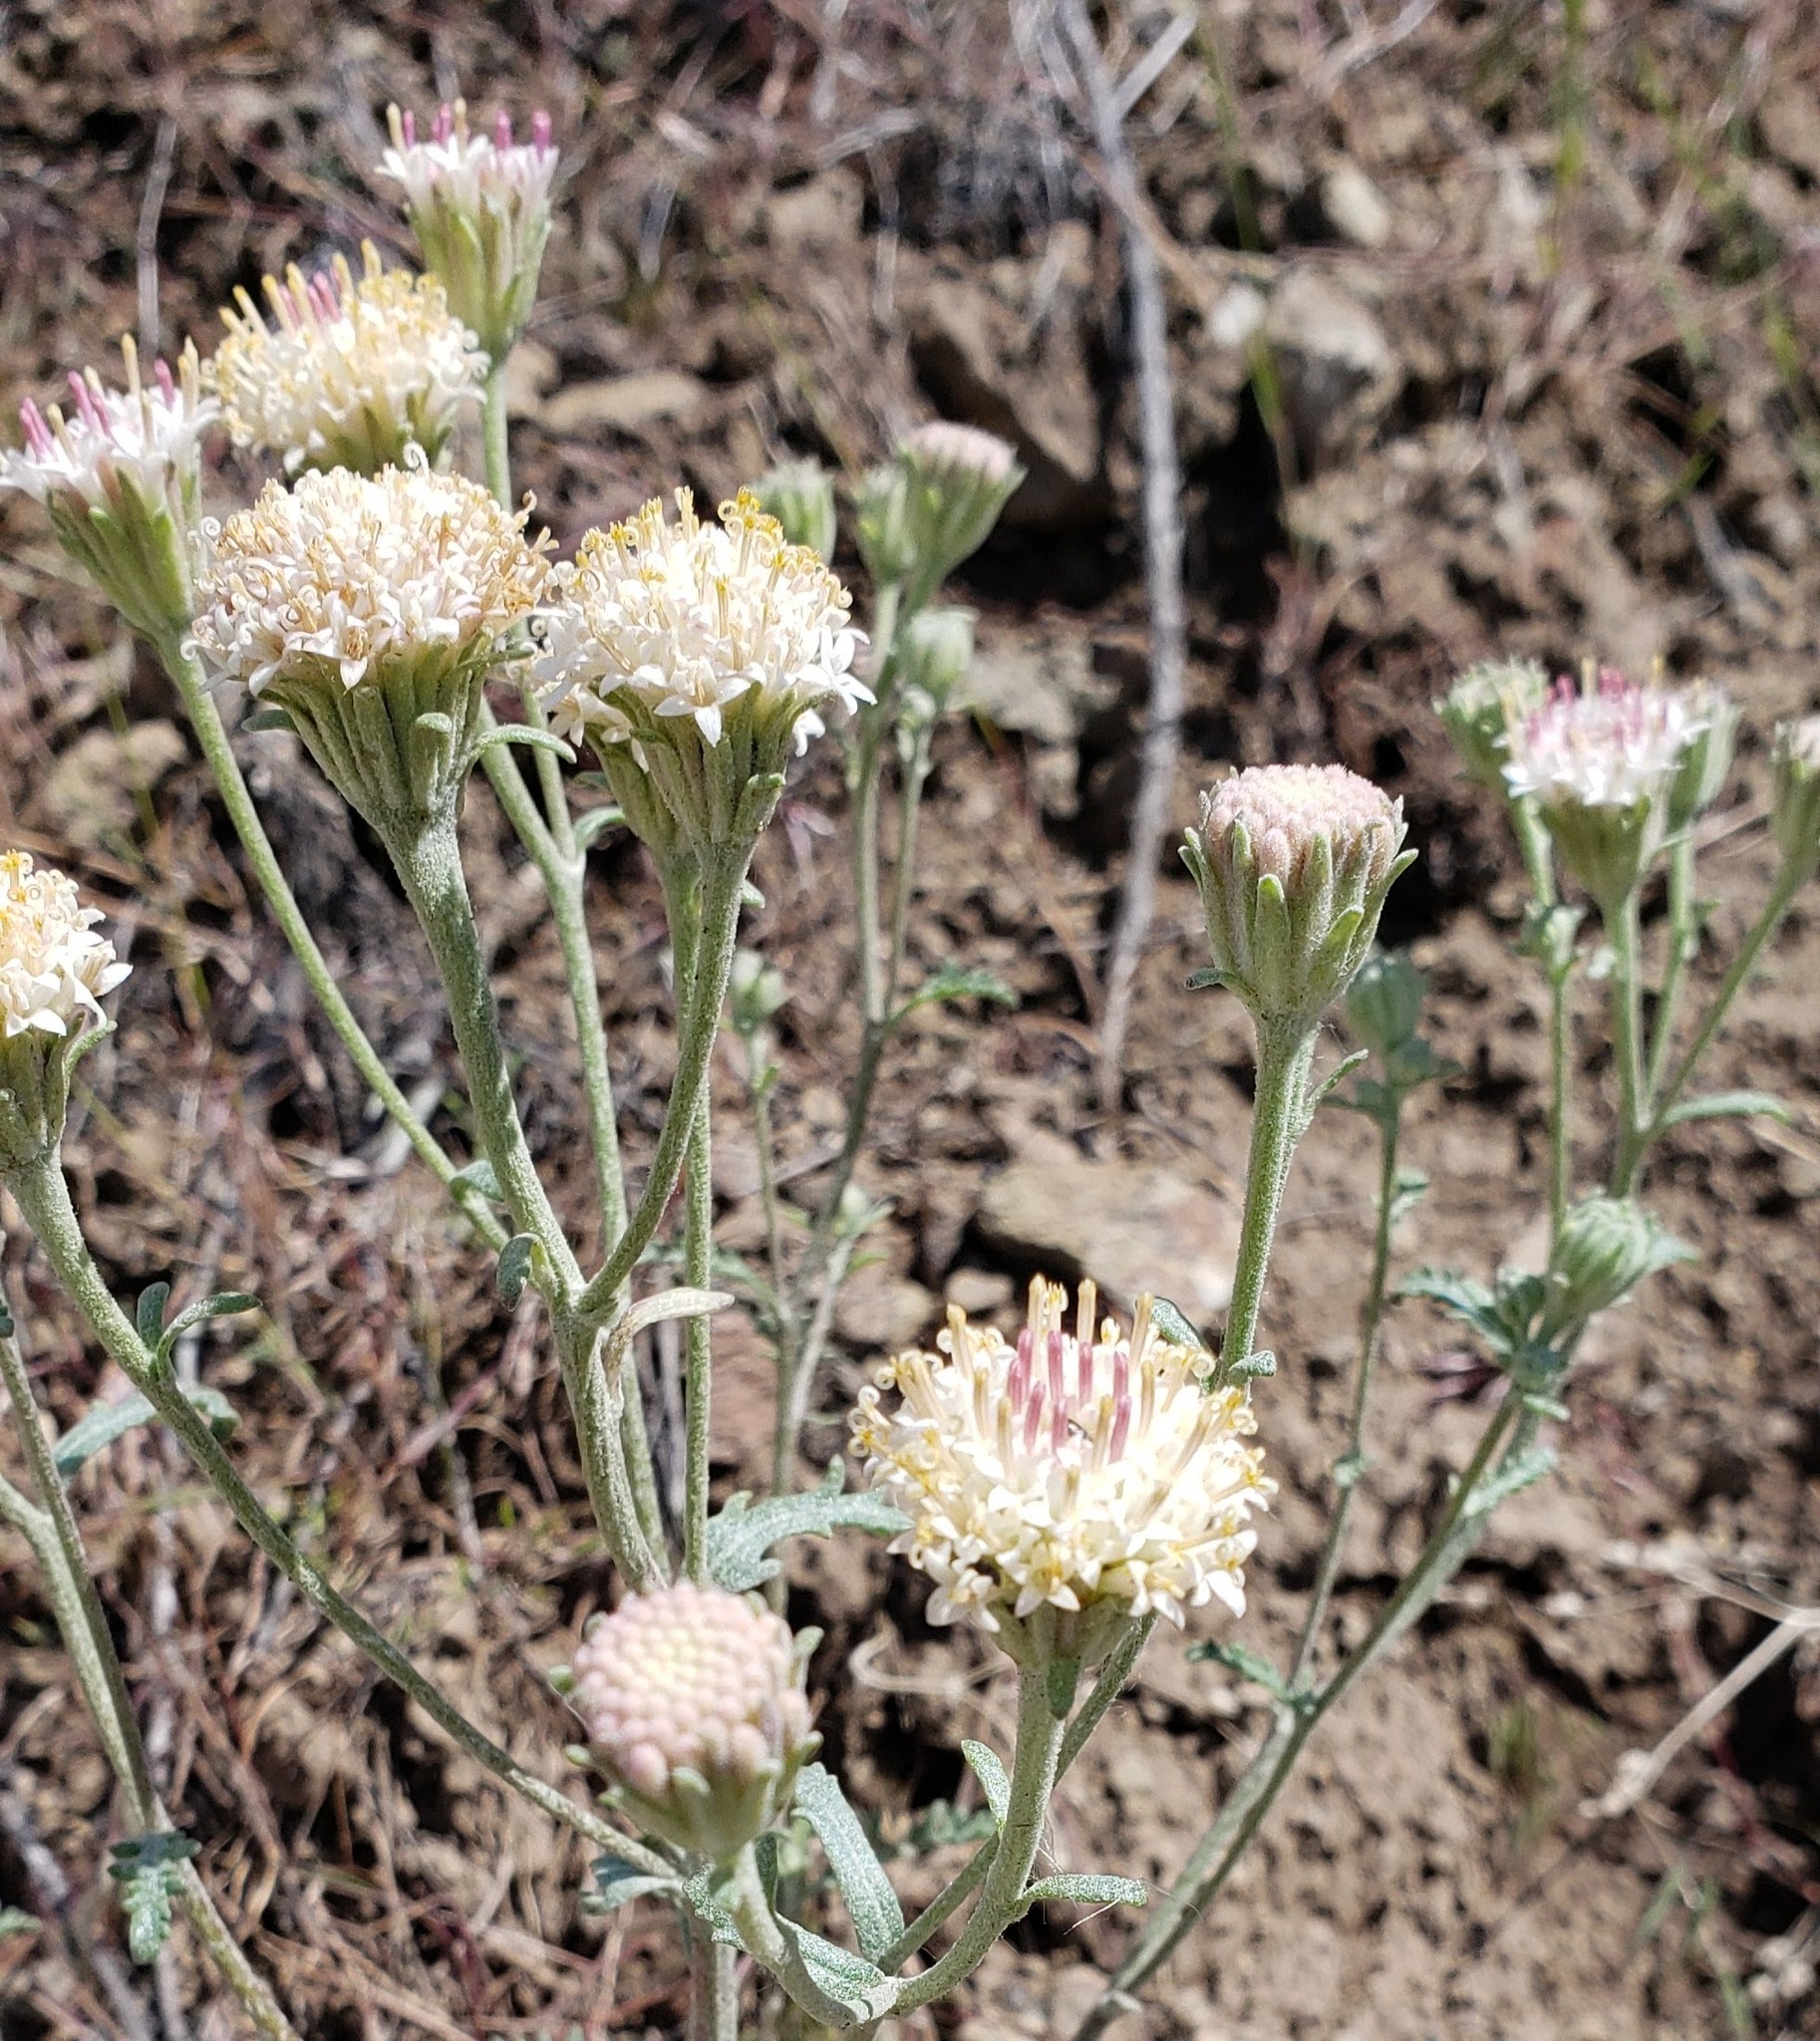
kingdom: Plantae
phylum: Tracheophyta
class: Magnoliopsida
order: Asterales
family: Asteraceae
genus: Chaenactis
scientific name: Chaenactis douglasii
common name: Hoary pincushion
